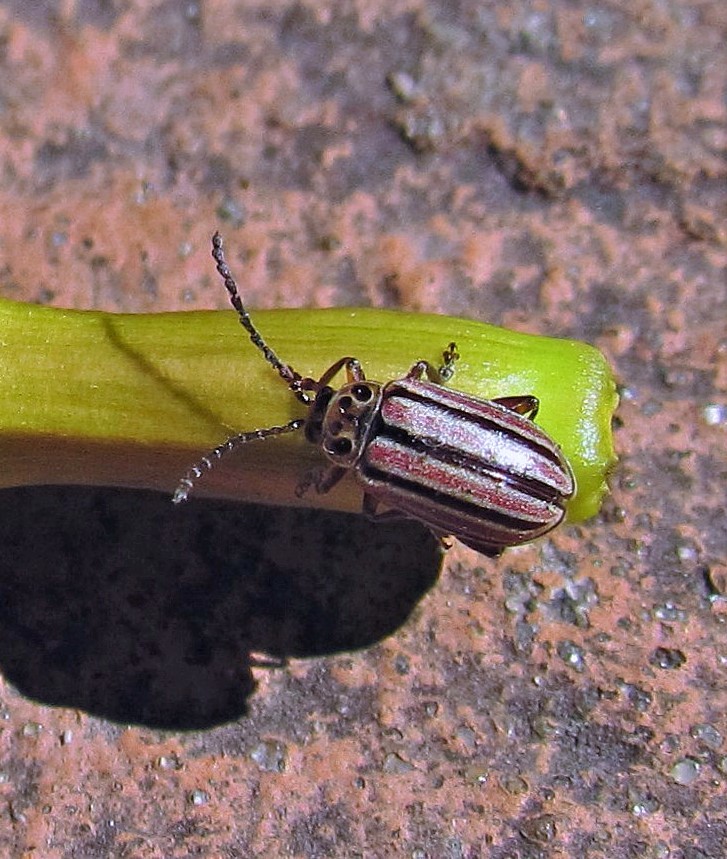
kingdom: Animalia
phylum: Arthropoda
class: Insecta
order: Coleoptera
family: Chrysomelidae
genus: Disonycha
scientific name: Disonycha
